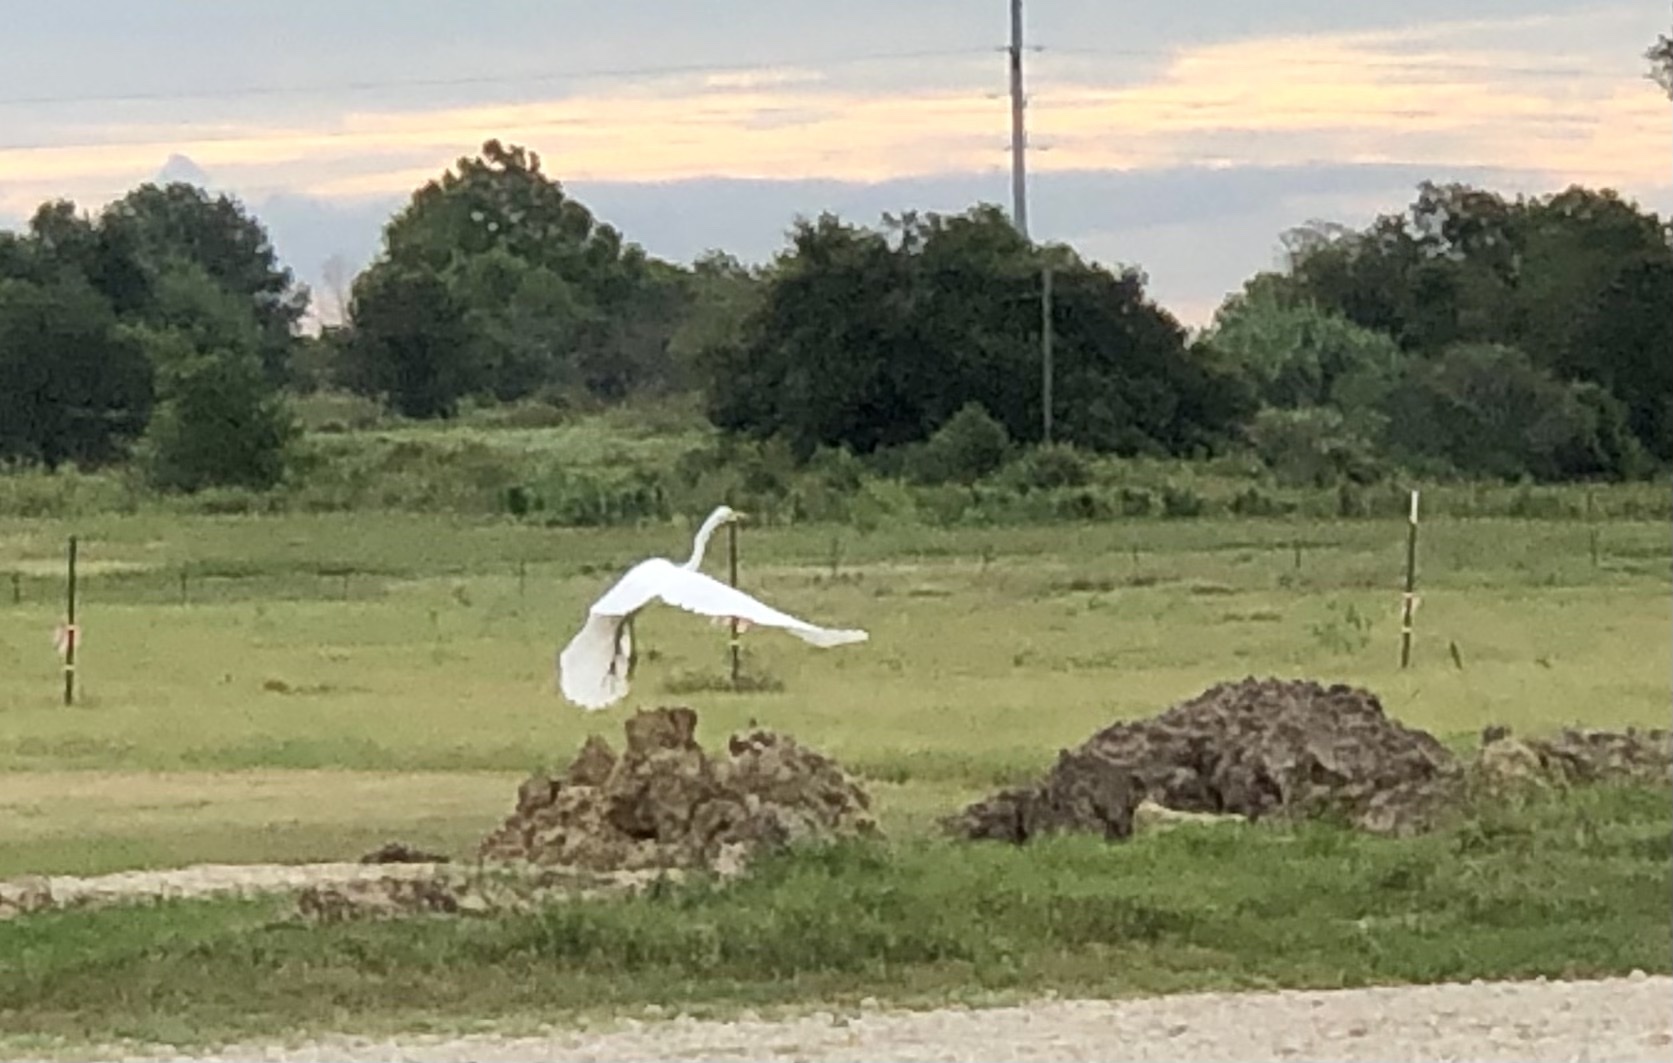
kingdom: Animalia
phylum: Chordata
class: Aves
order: Pelecaniformes
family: Ardeidae
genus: Ardea
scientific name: Ardea alba
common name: Great egret
